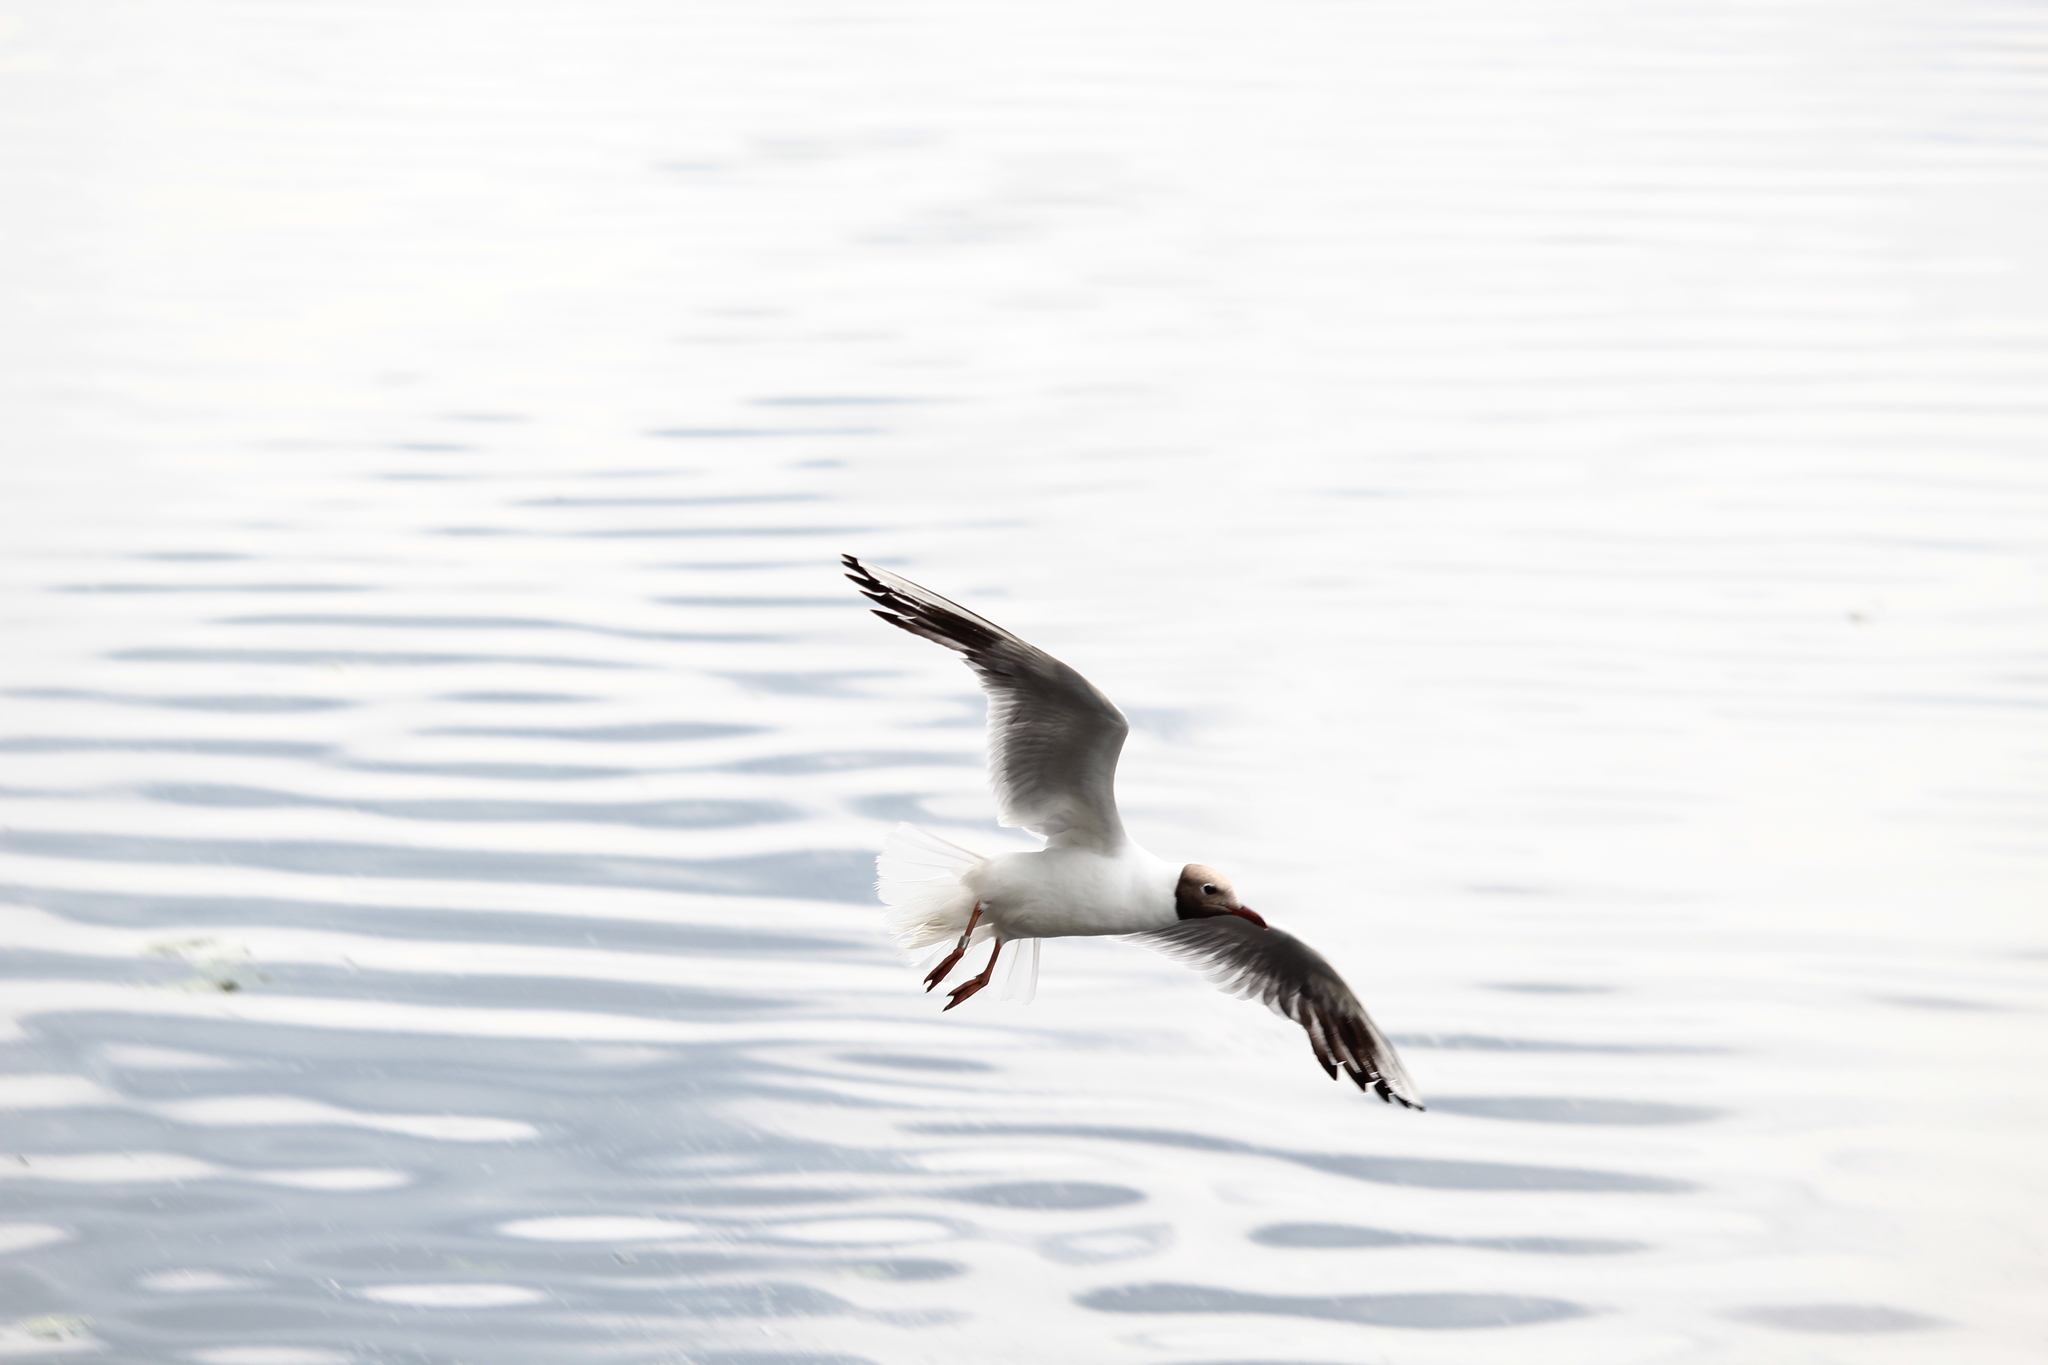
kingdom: Animalia
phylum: Chordata
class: Aves
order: Charadriiformes
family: Laridae
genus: Chroicocephalus
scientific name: Chroicocephalus ridibundus
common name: Black-headed gull
